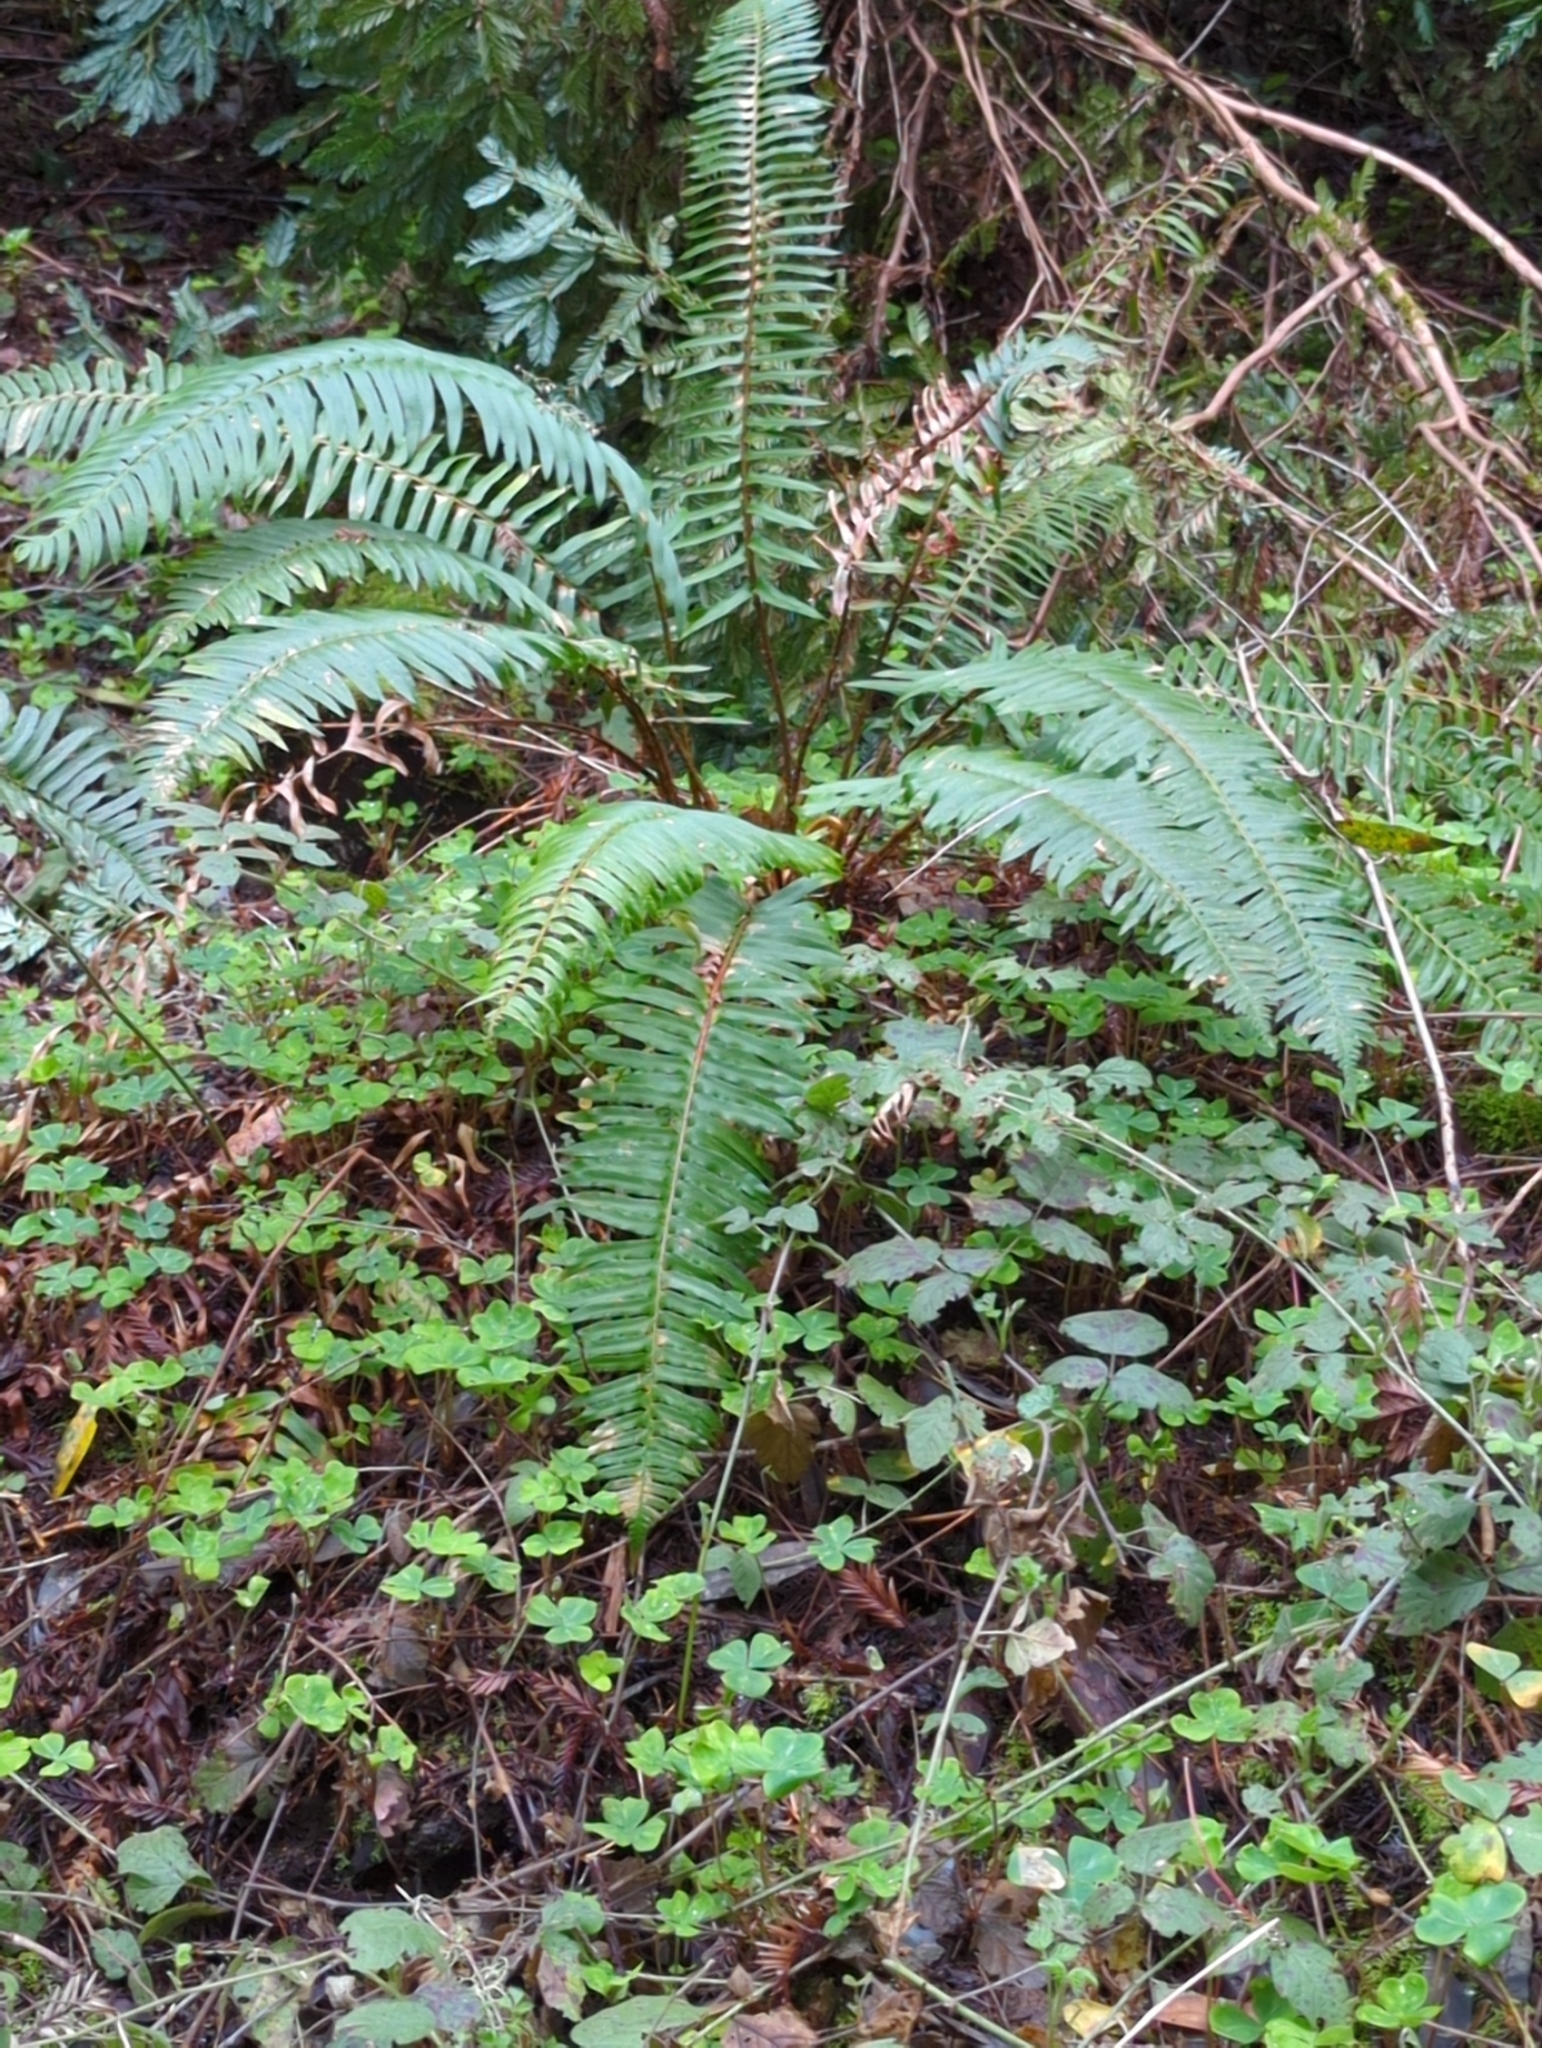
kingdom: Plantae
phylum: Tracheophyta
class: Polypodiopsida
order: Polypodiales
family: Dryopteridaceae
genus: Polystichum
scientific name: Polystichum munitum
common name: Western sword-fern
